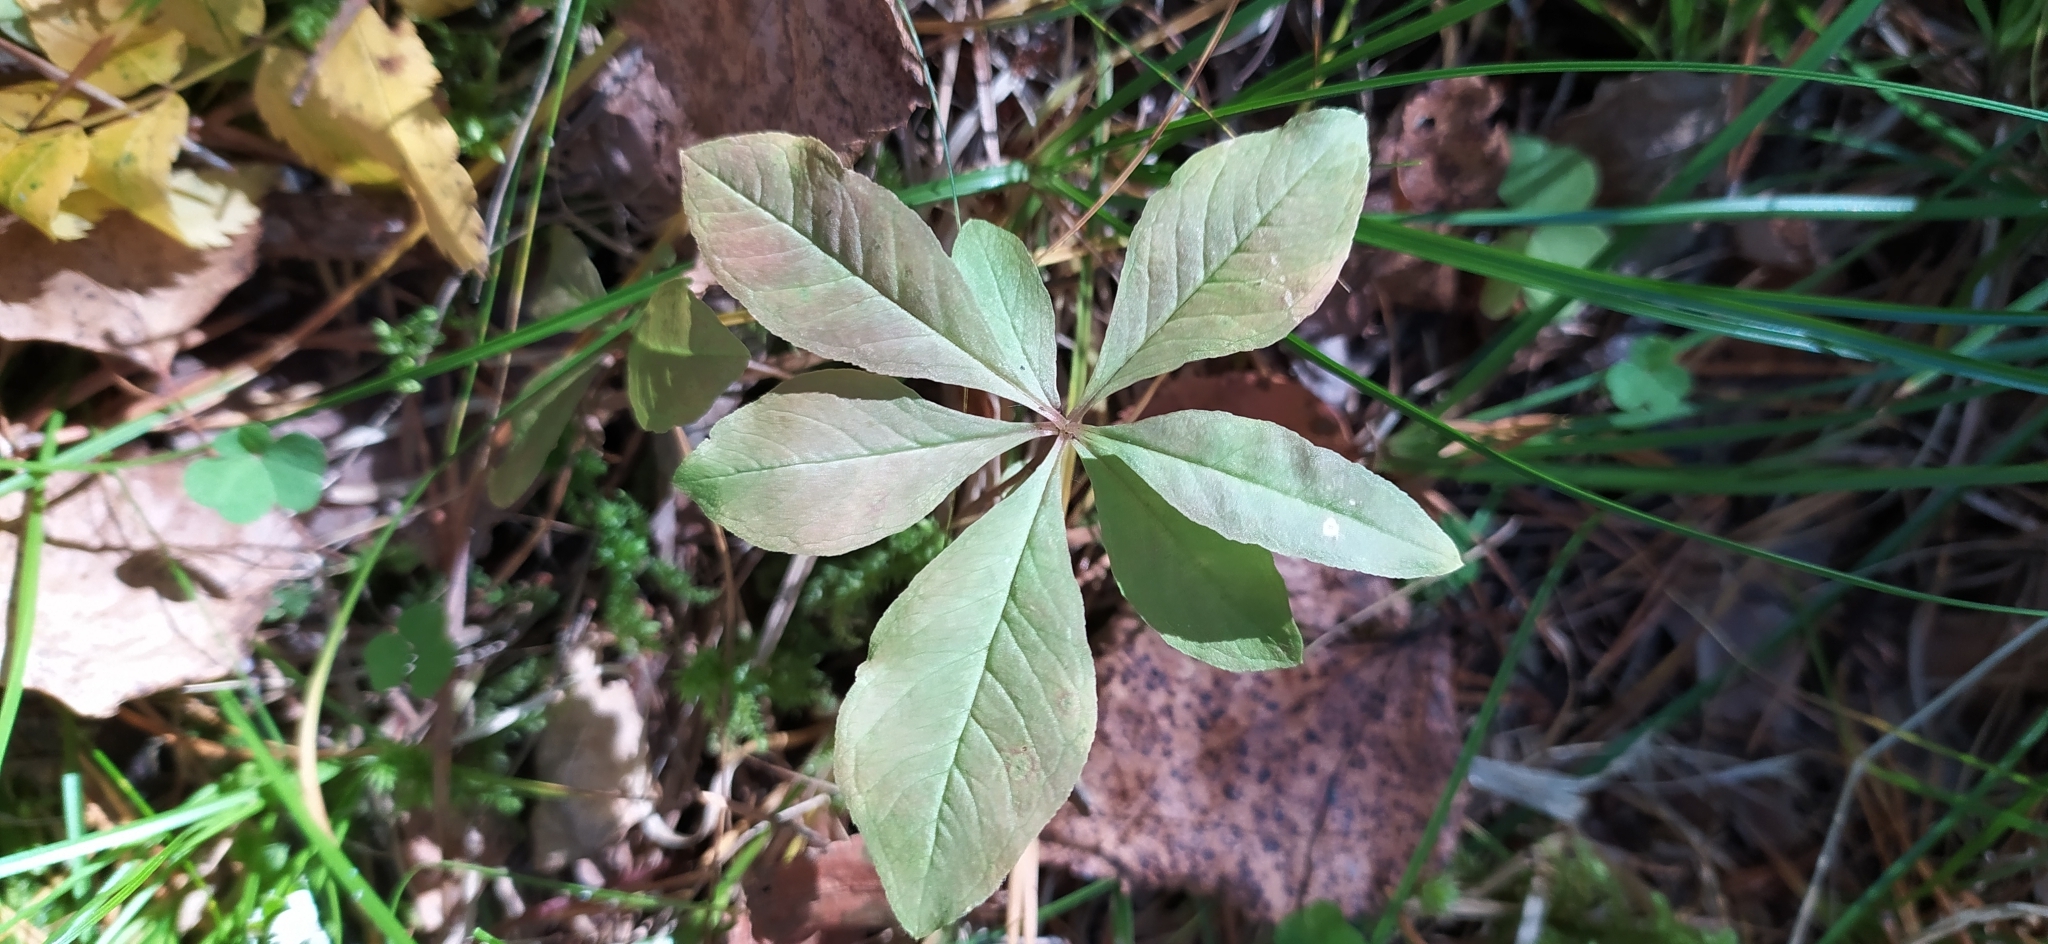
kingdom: Plantae
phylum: Tracheophyta
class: Magnoliopsida
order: Ericales
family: Primulaceae
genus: Lysimachia
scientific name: Lysimachia europaea
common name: Arctic starflower
